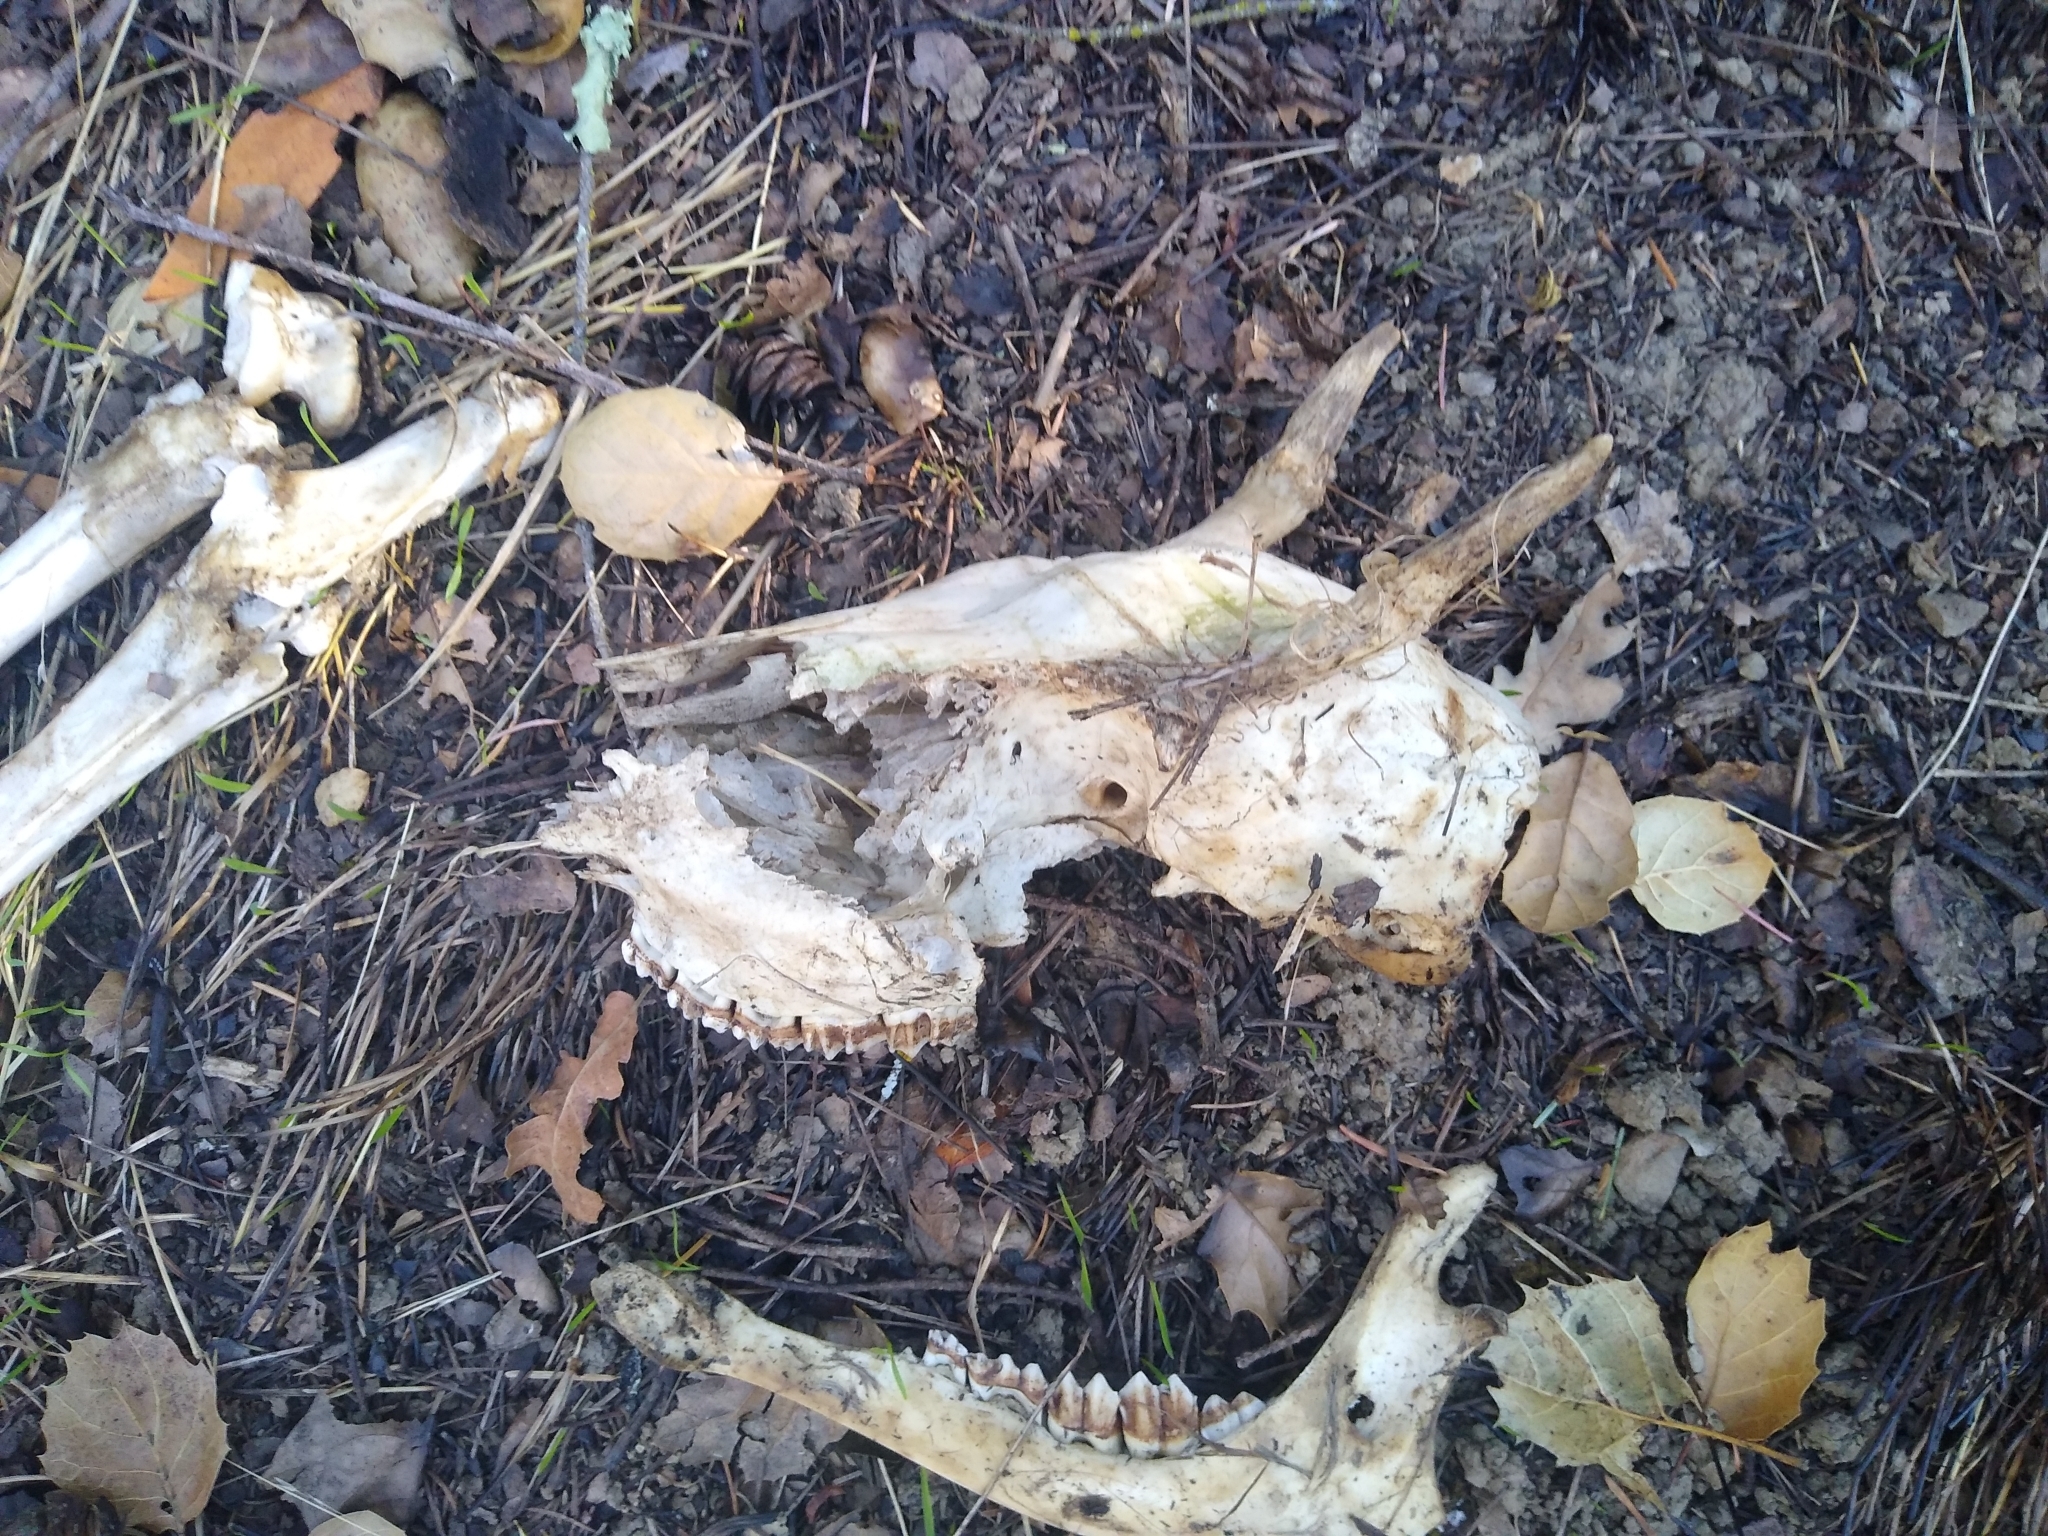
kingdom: Animalia
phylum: Chordata
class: Mammalia
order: Artiodactyla
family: Cervidae
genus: Odocoileus
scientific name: Odocoileus hemionus
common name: Mule deer
